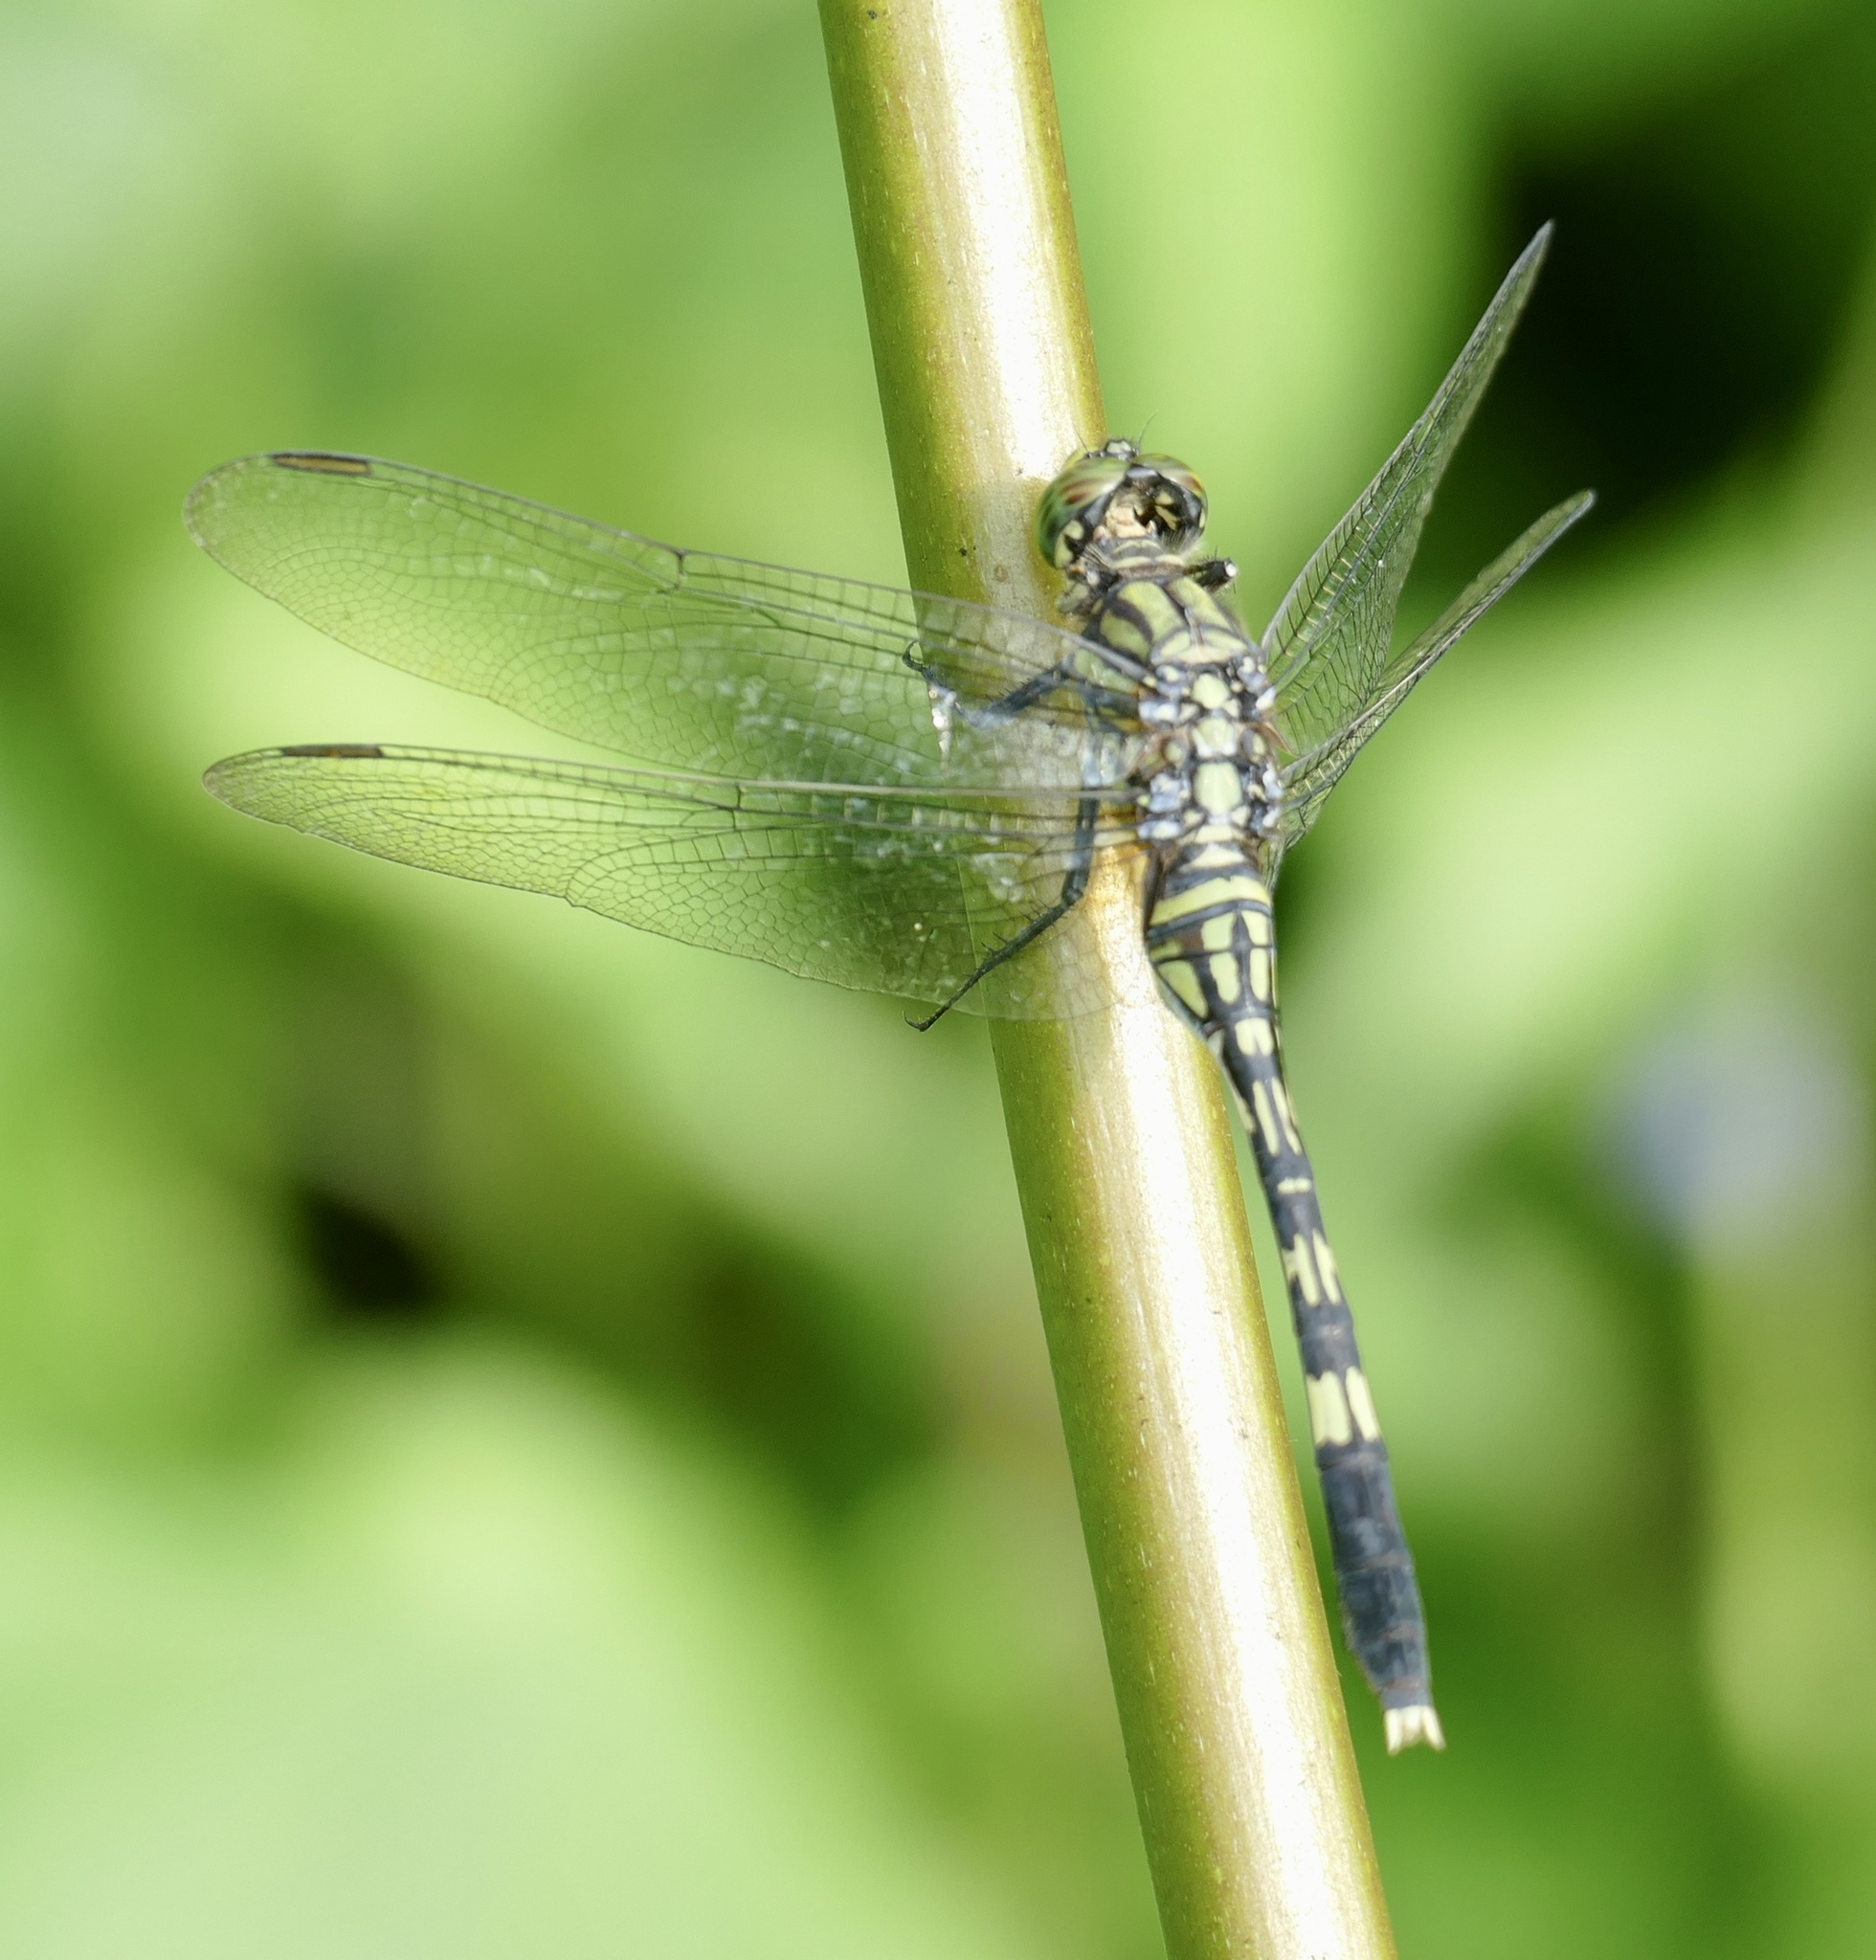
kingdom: Animalia
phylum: Arthropoda
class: Insecta
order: Odonata
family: Libellulidae
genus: Orthetrum
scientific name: Orthetrum serapia
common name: Green skimmer
